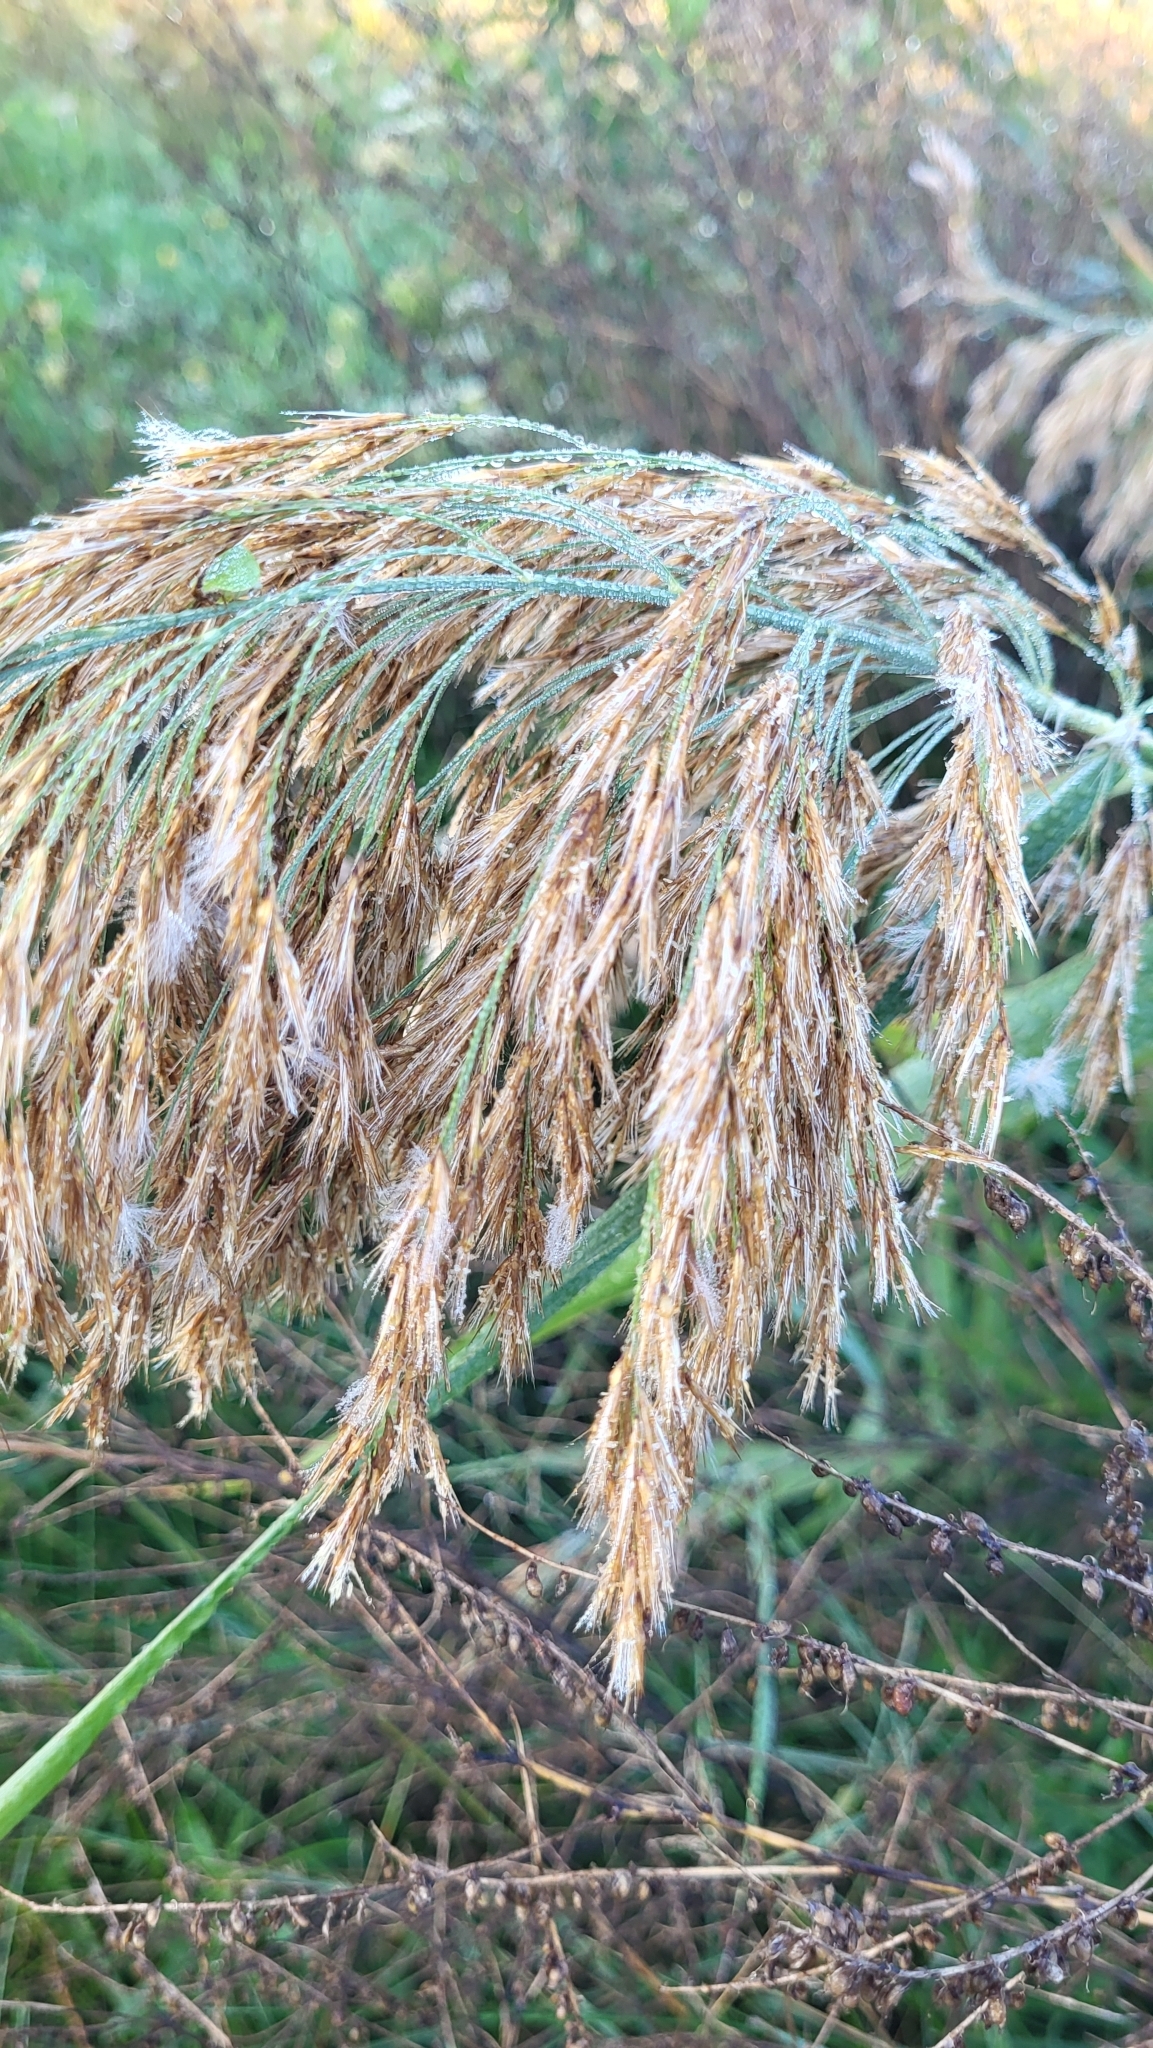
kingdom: Plantae
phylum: Tracheophyta
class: Liliopsida
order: Poales
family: Poaceae
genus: Phragmites
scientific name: Phragmites australis
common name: Common reed
